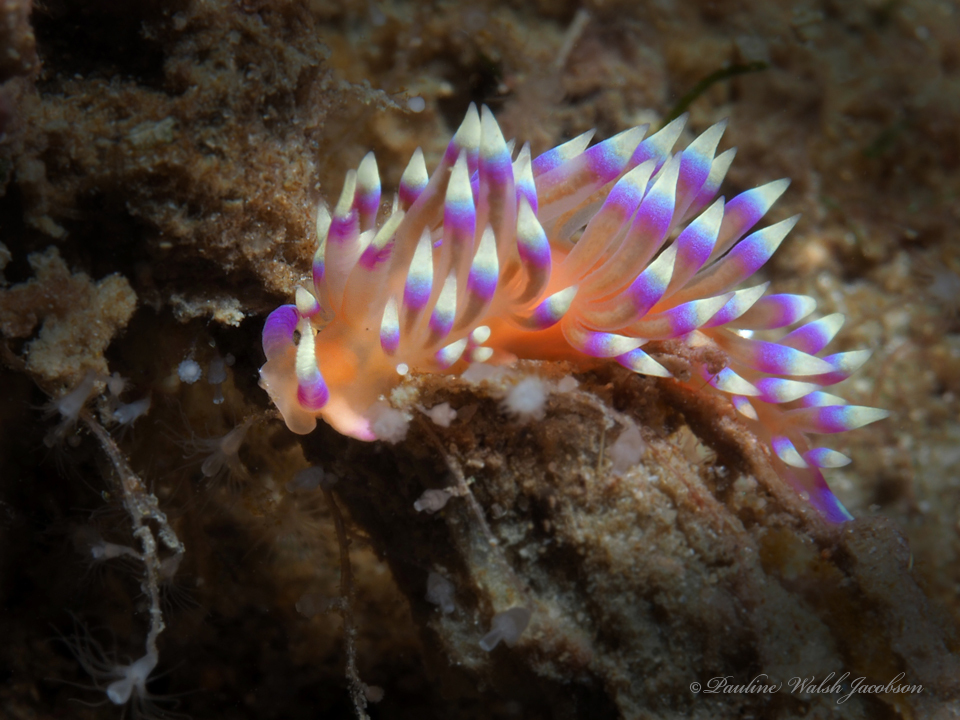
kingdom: Animalia
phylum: Mollusca
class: Gastropoda
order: Nudibranchia
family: Flabellinidae
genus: Coryphellina
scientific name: Coryphellina marcusorum
